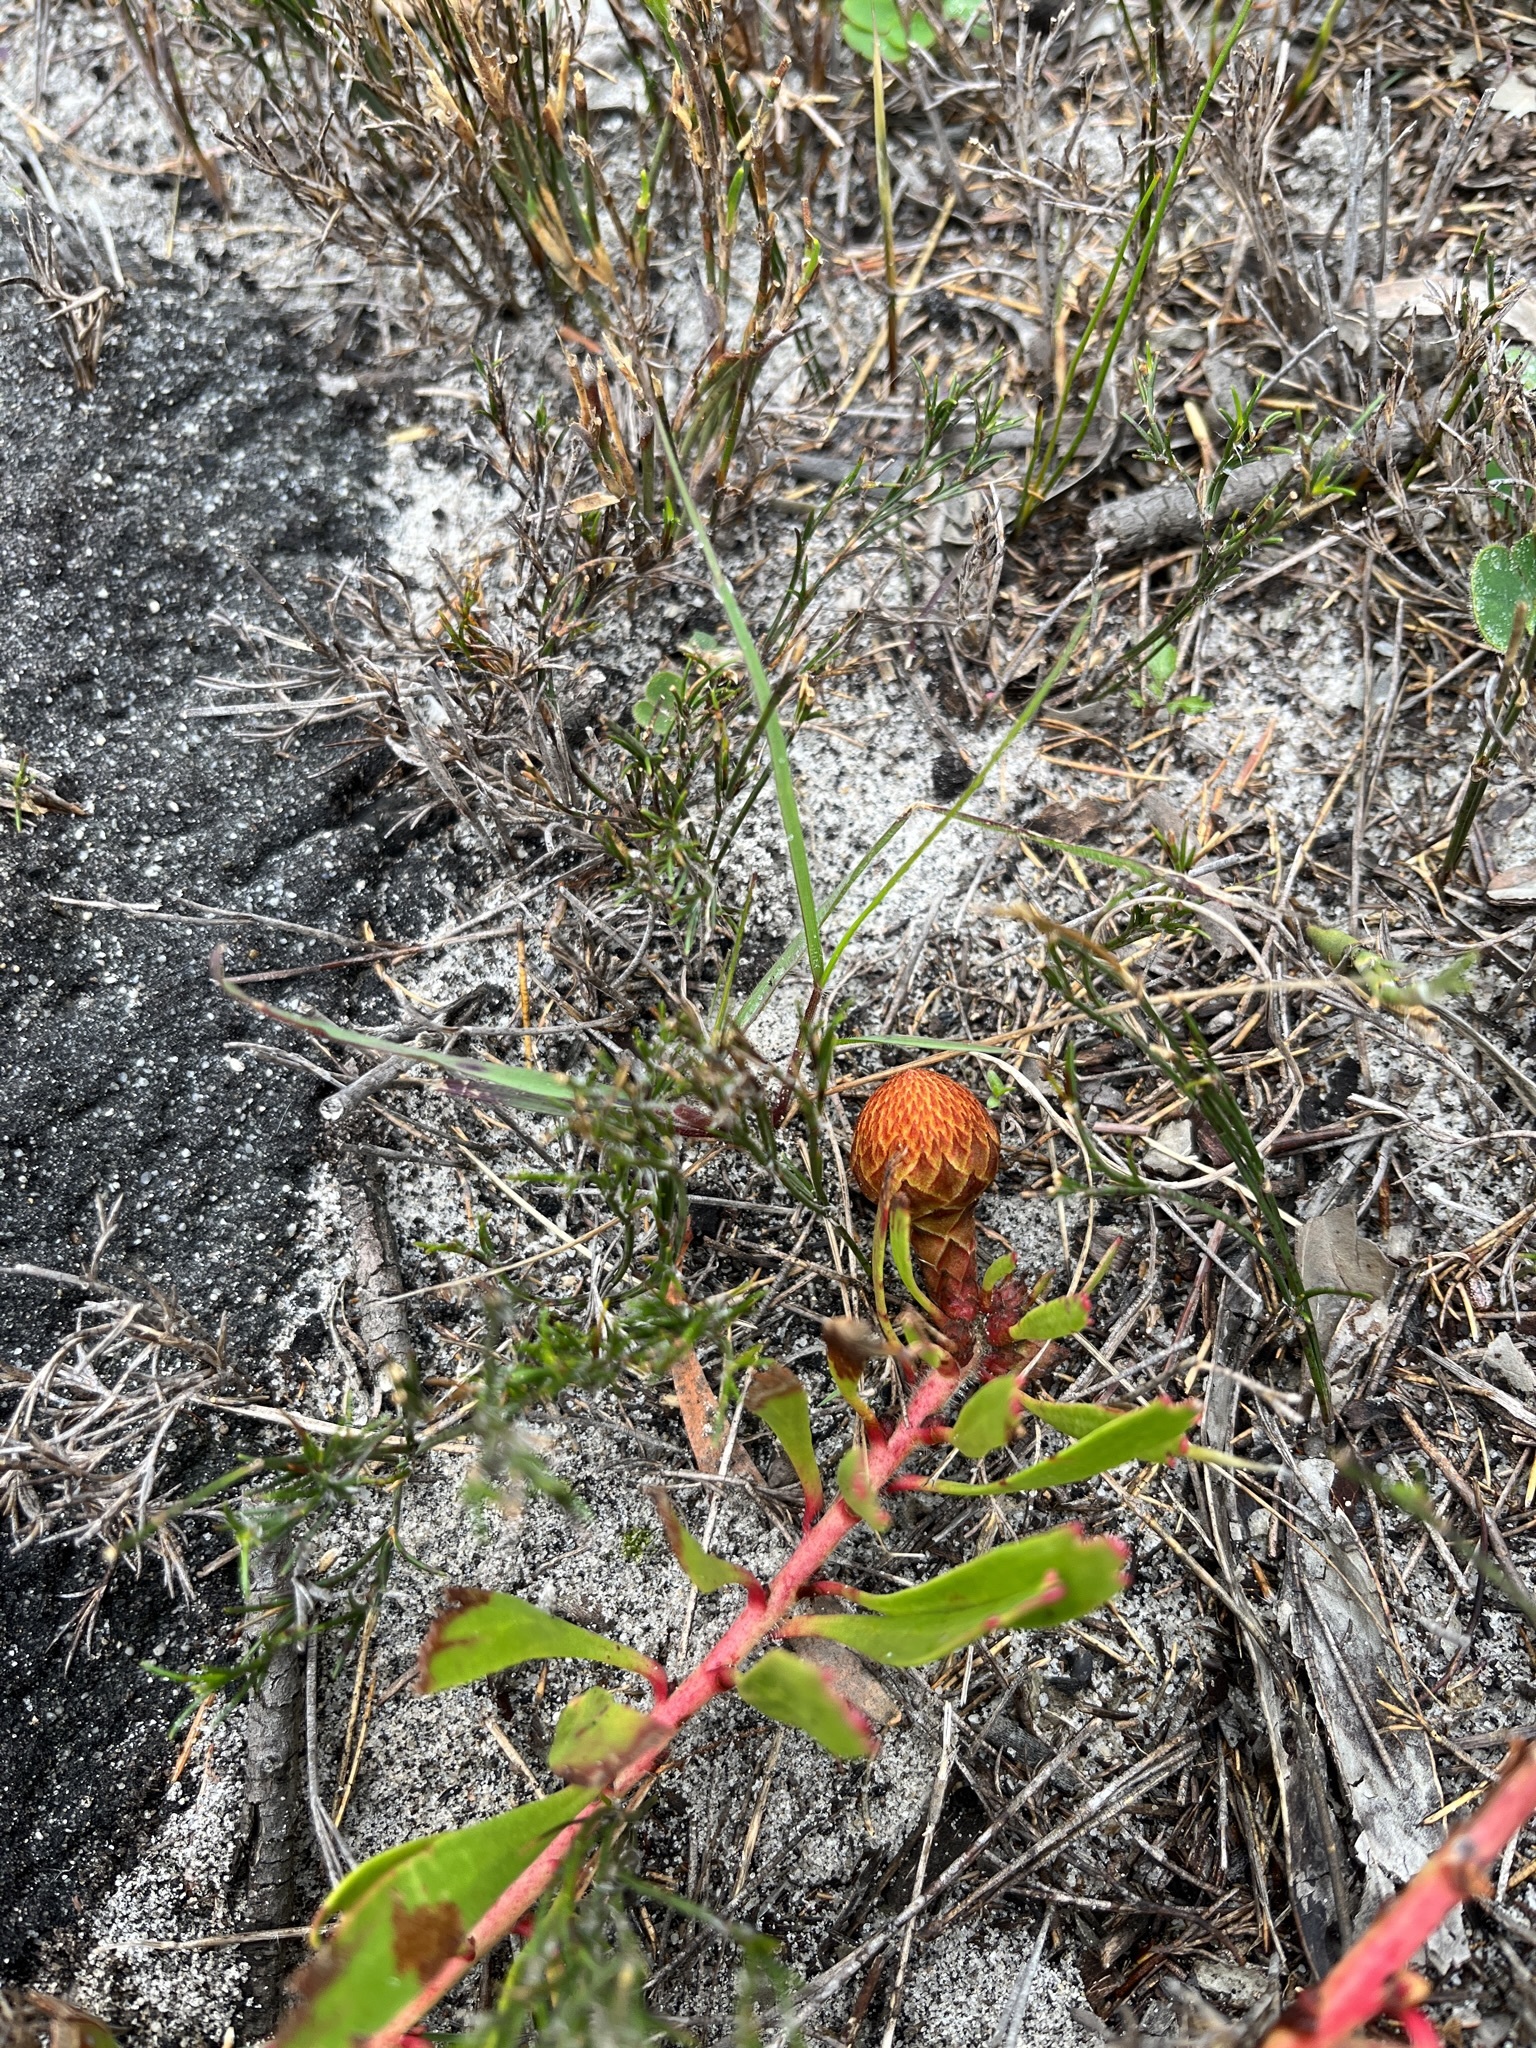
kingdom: Plantae
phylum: Tracheophyta
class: Magnoliopsida
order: Proteales
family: Proteaceae
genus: Leucospermum
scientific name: Leucospermum hypophyllocarpodendron
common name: Snakestem pincushion
